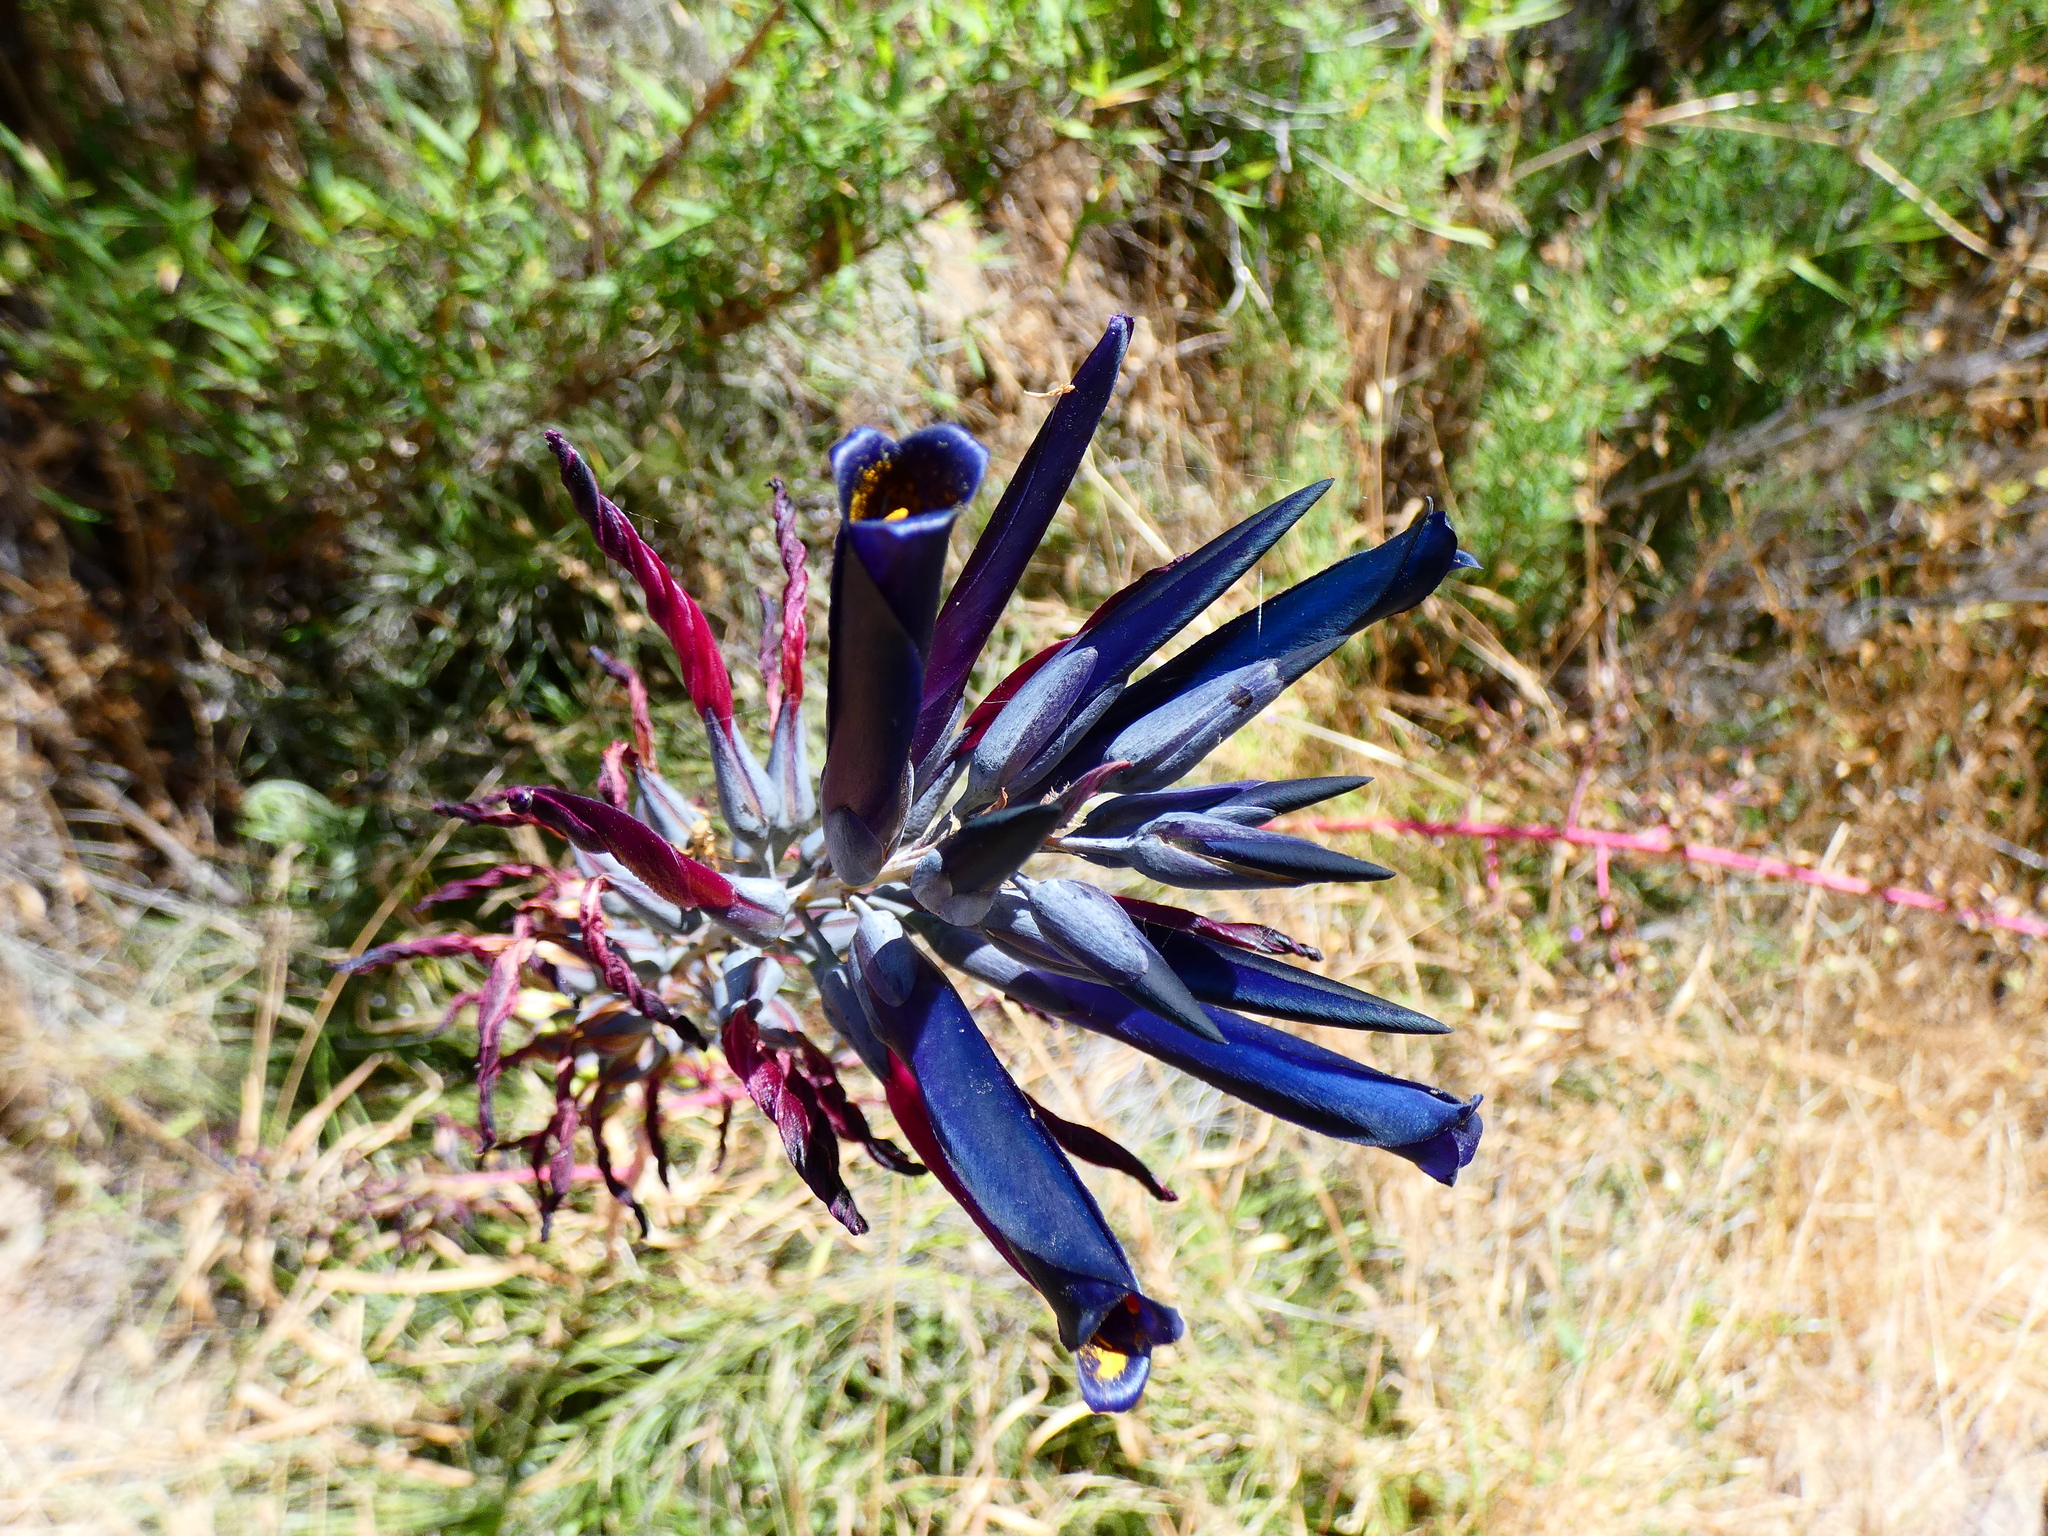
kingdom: Plantae
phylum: Tracheophyta
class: Liliopsida
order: Poales
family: Bromeliaceae
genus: Puya
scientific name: Puya coerulea
